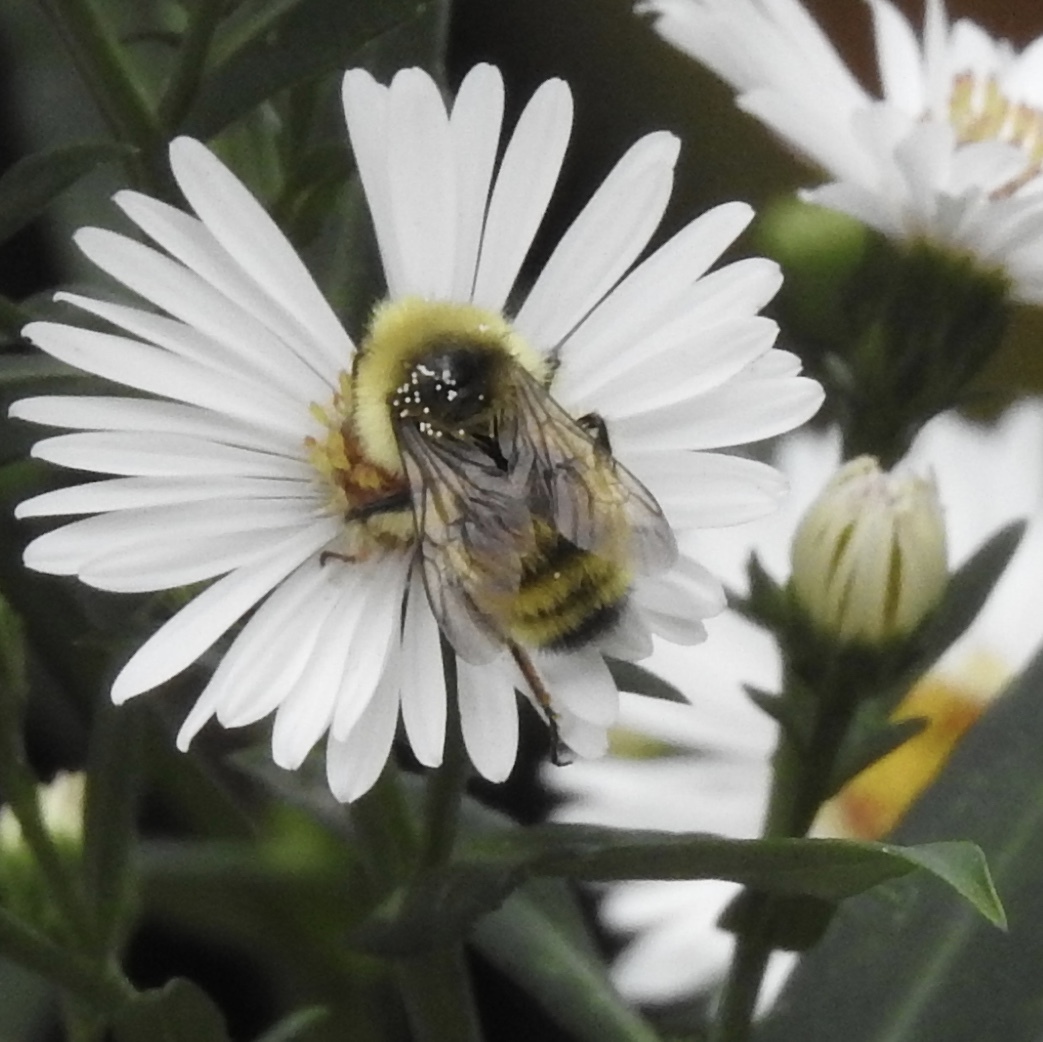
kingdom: Animalia
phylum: Arthropoda
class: Insecta
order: Hymenoptera
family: Apidae
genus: Bombus
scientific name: Bombus vandykei
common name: Van dyke bumble bee
